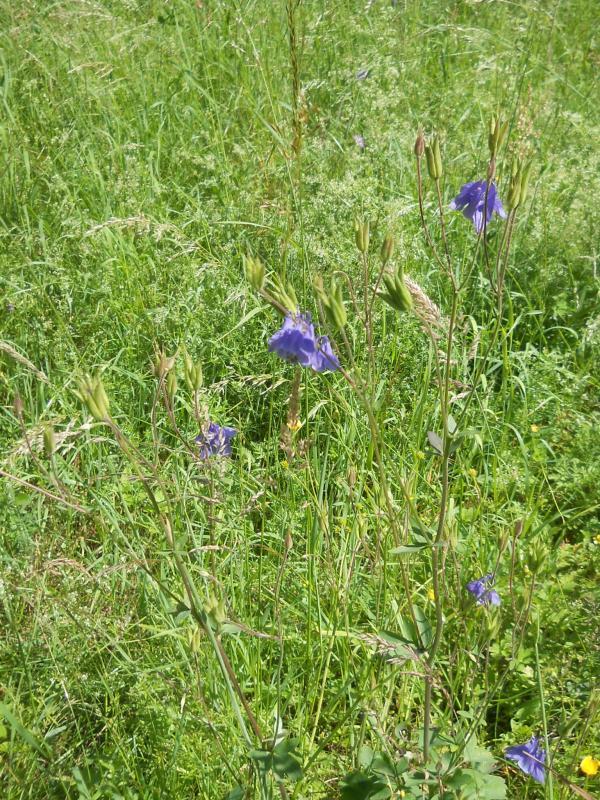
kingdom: Plantae
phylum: Tracheophyta
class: Magnoliopsida
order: Ranunculales
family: Ranunculaceae
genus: Aquilegia
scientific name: Aquilegia vulgaris
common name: Columbine
